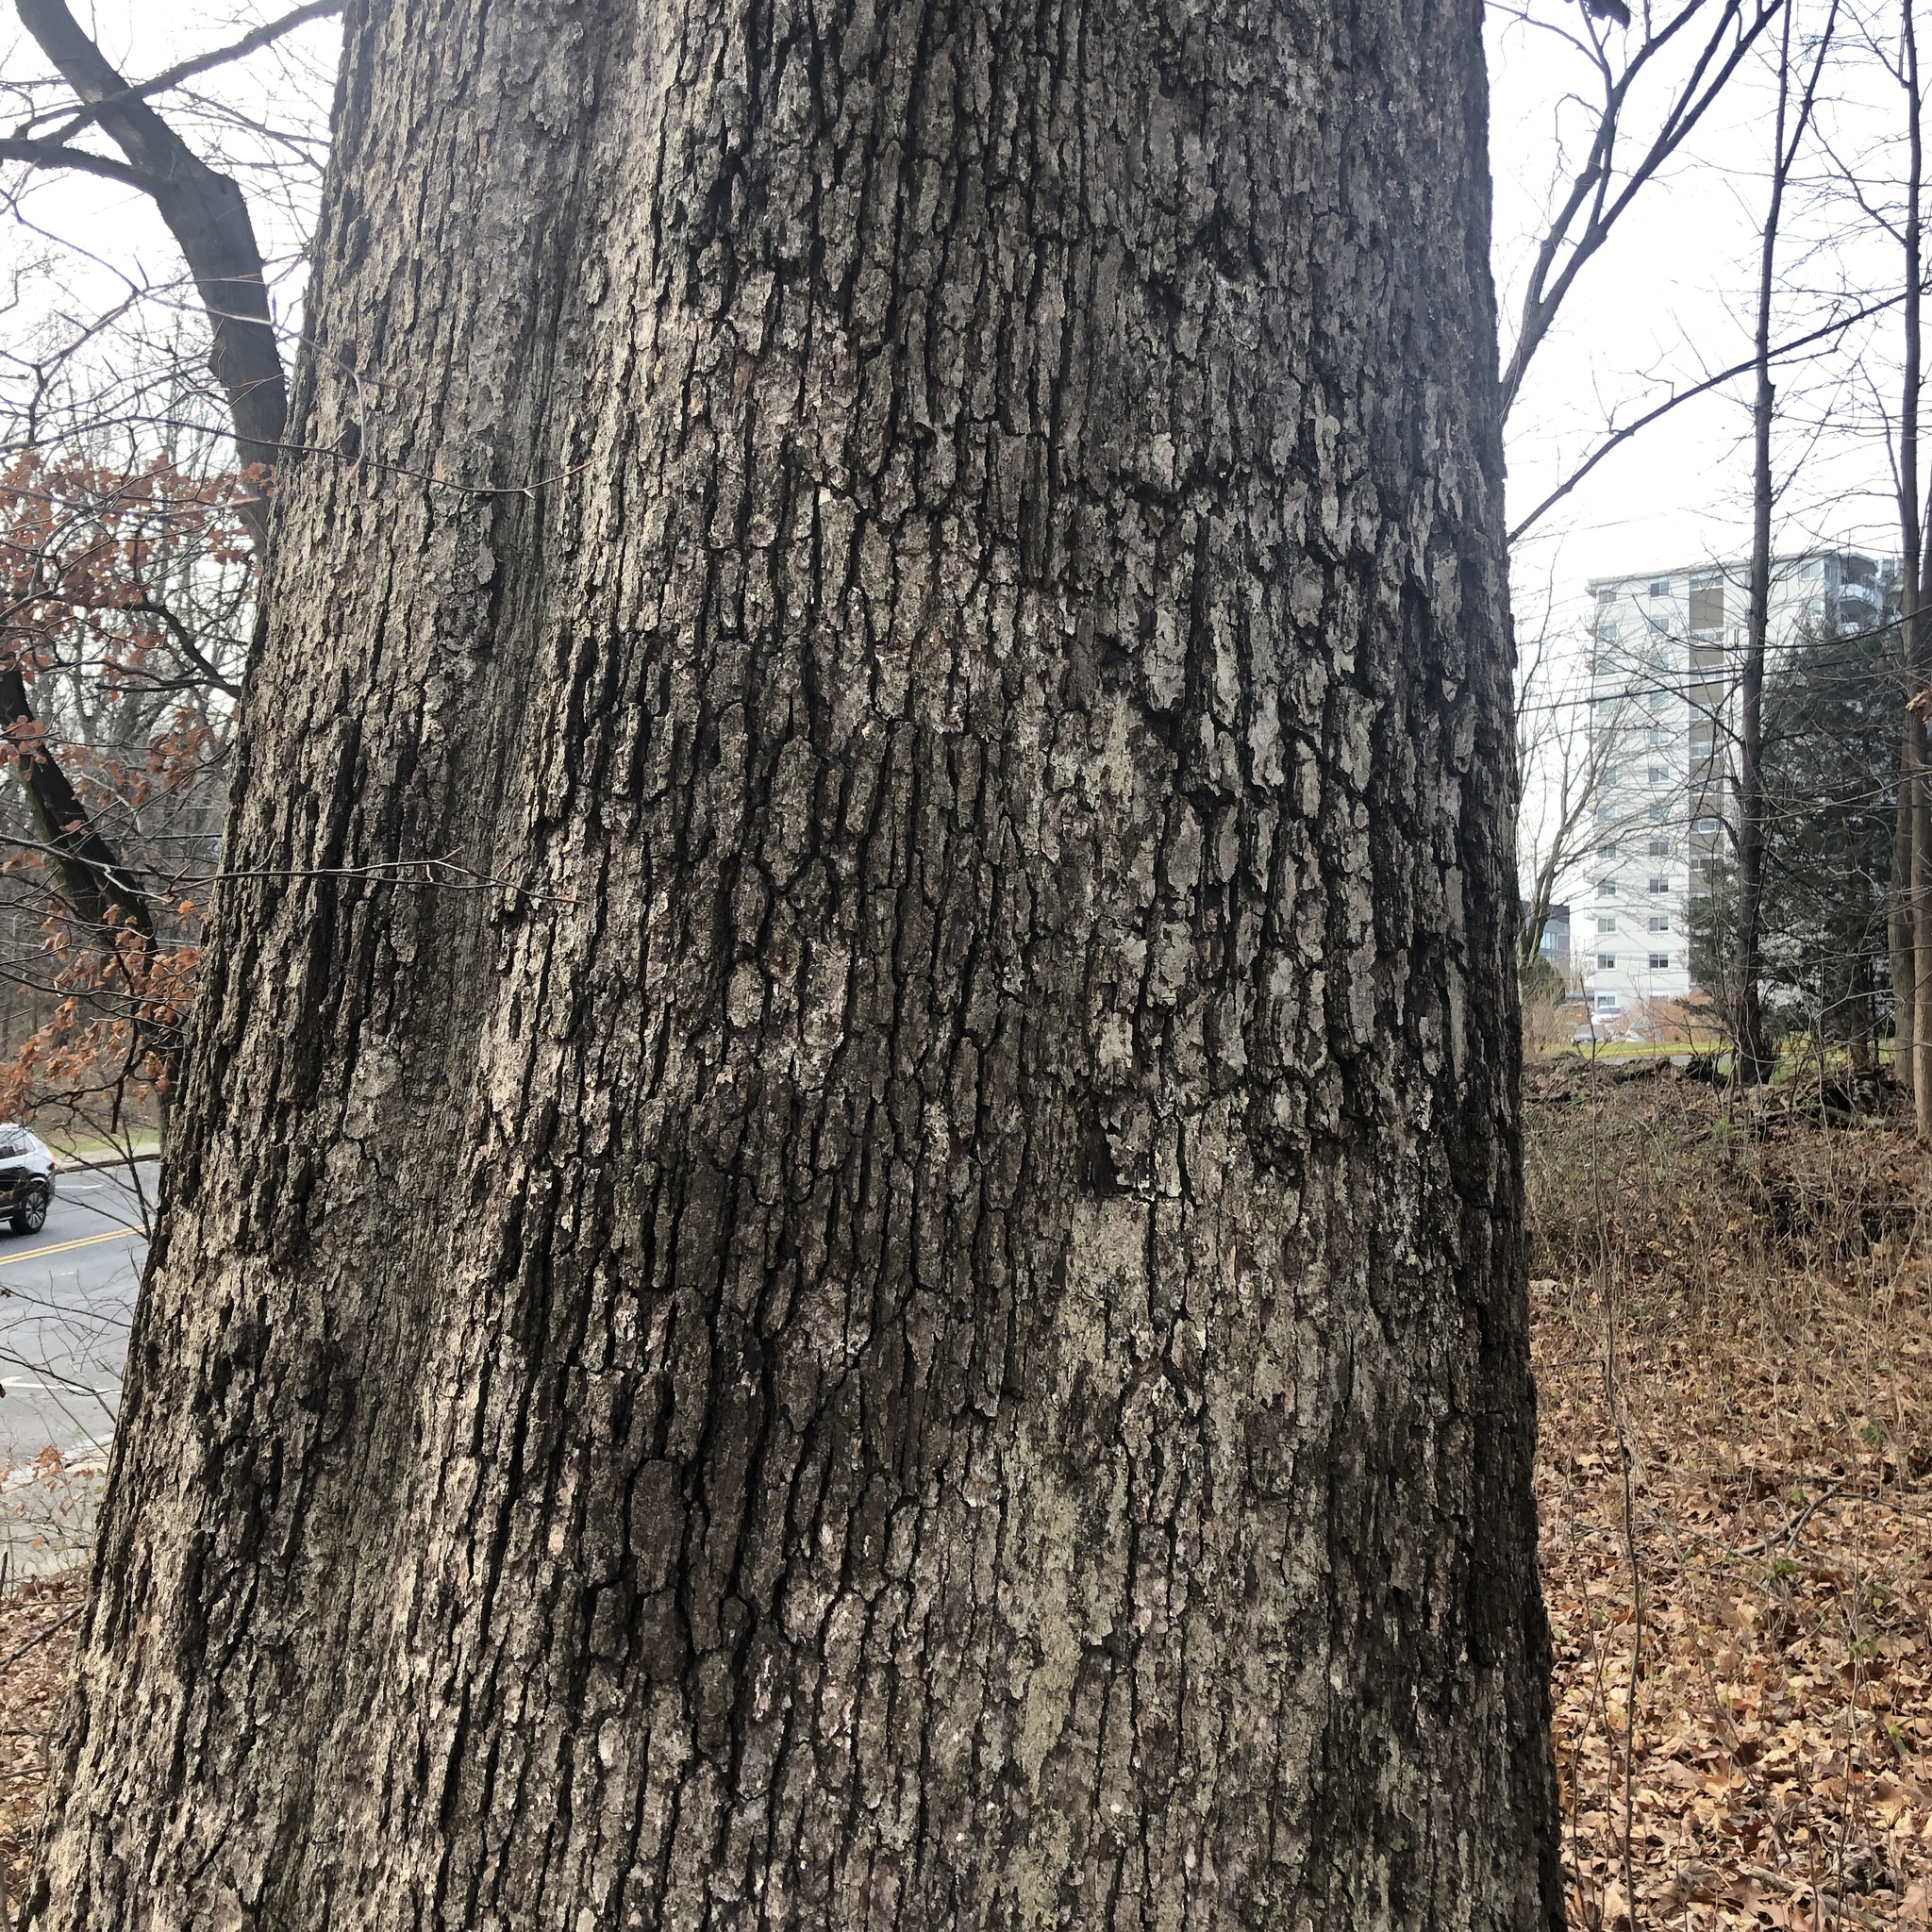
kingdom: Fungi
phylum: Basidiomycota
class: Agaricomycetes
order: Russulales
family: Stereaceae
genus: Acanthophysium
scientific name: Acanthophysium oakesii
